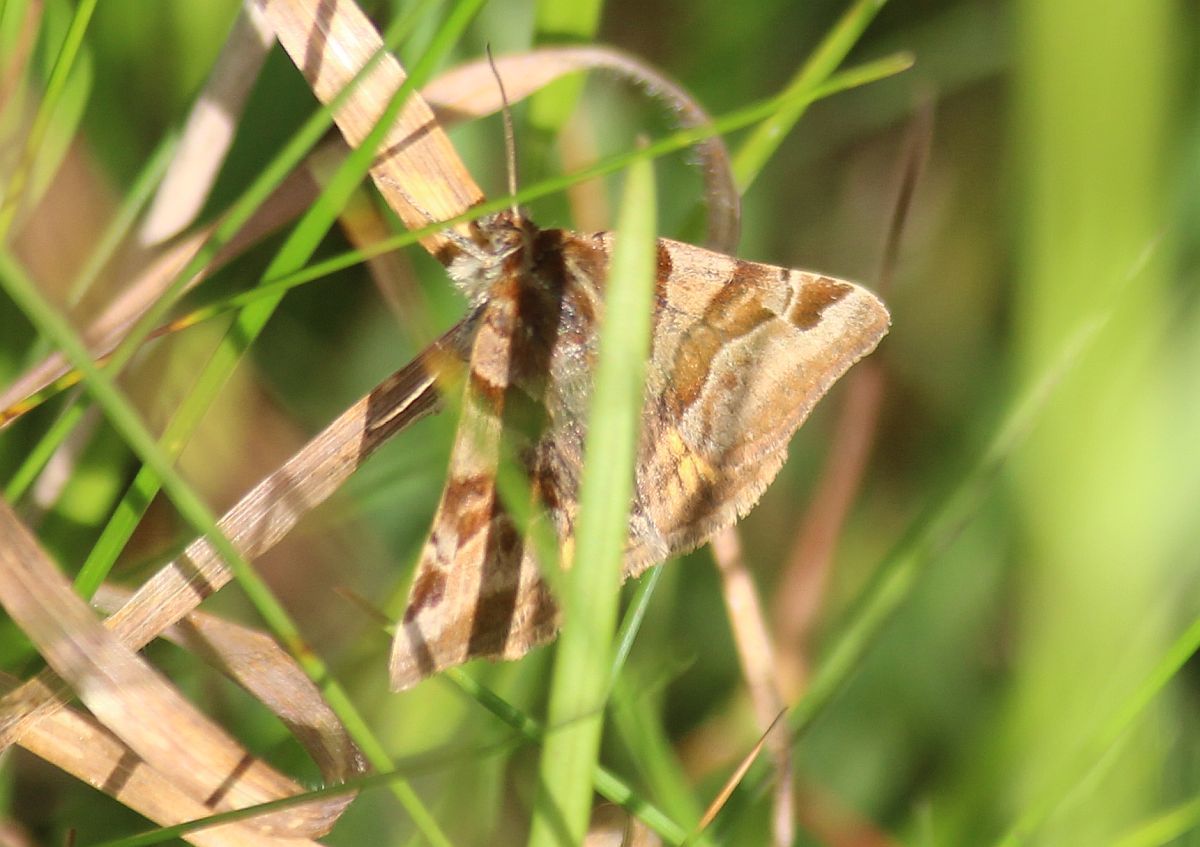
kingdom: Animalia
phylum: Arthropoda
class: Insecta
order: Lepidoptera
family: Erebidae
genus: Euclidia
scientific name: Euclidia glyphica
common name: Burnet companion
